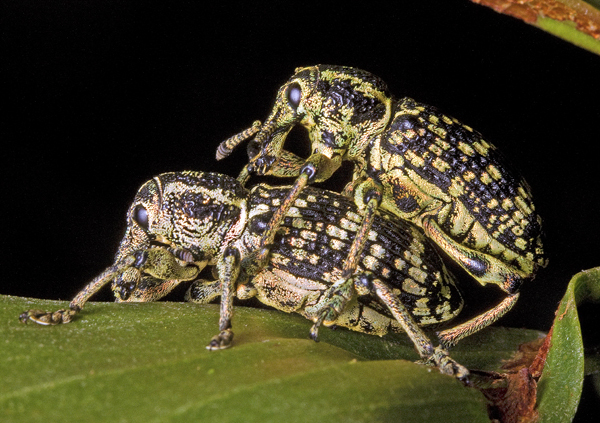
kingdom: Animalia
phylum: Arthropoda
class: Insecta
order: Coleoptera
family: Curculionidae
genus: Chrysolopus
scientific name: Chrysolopus spectabilis
